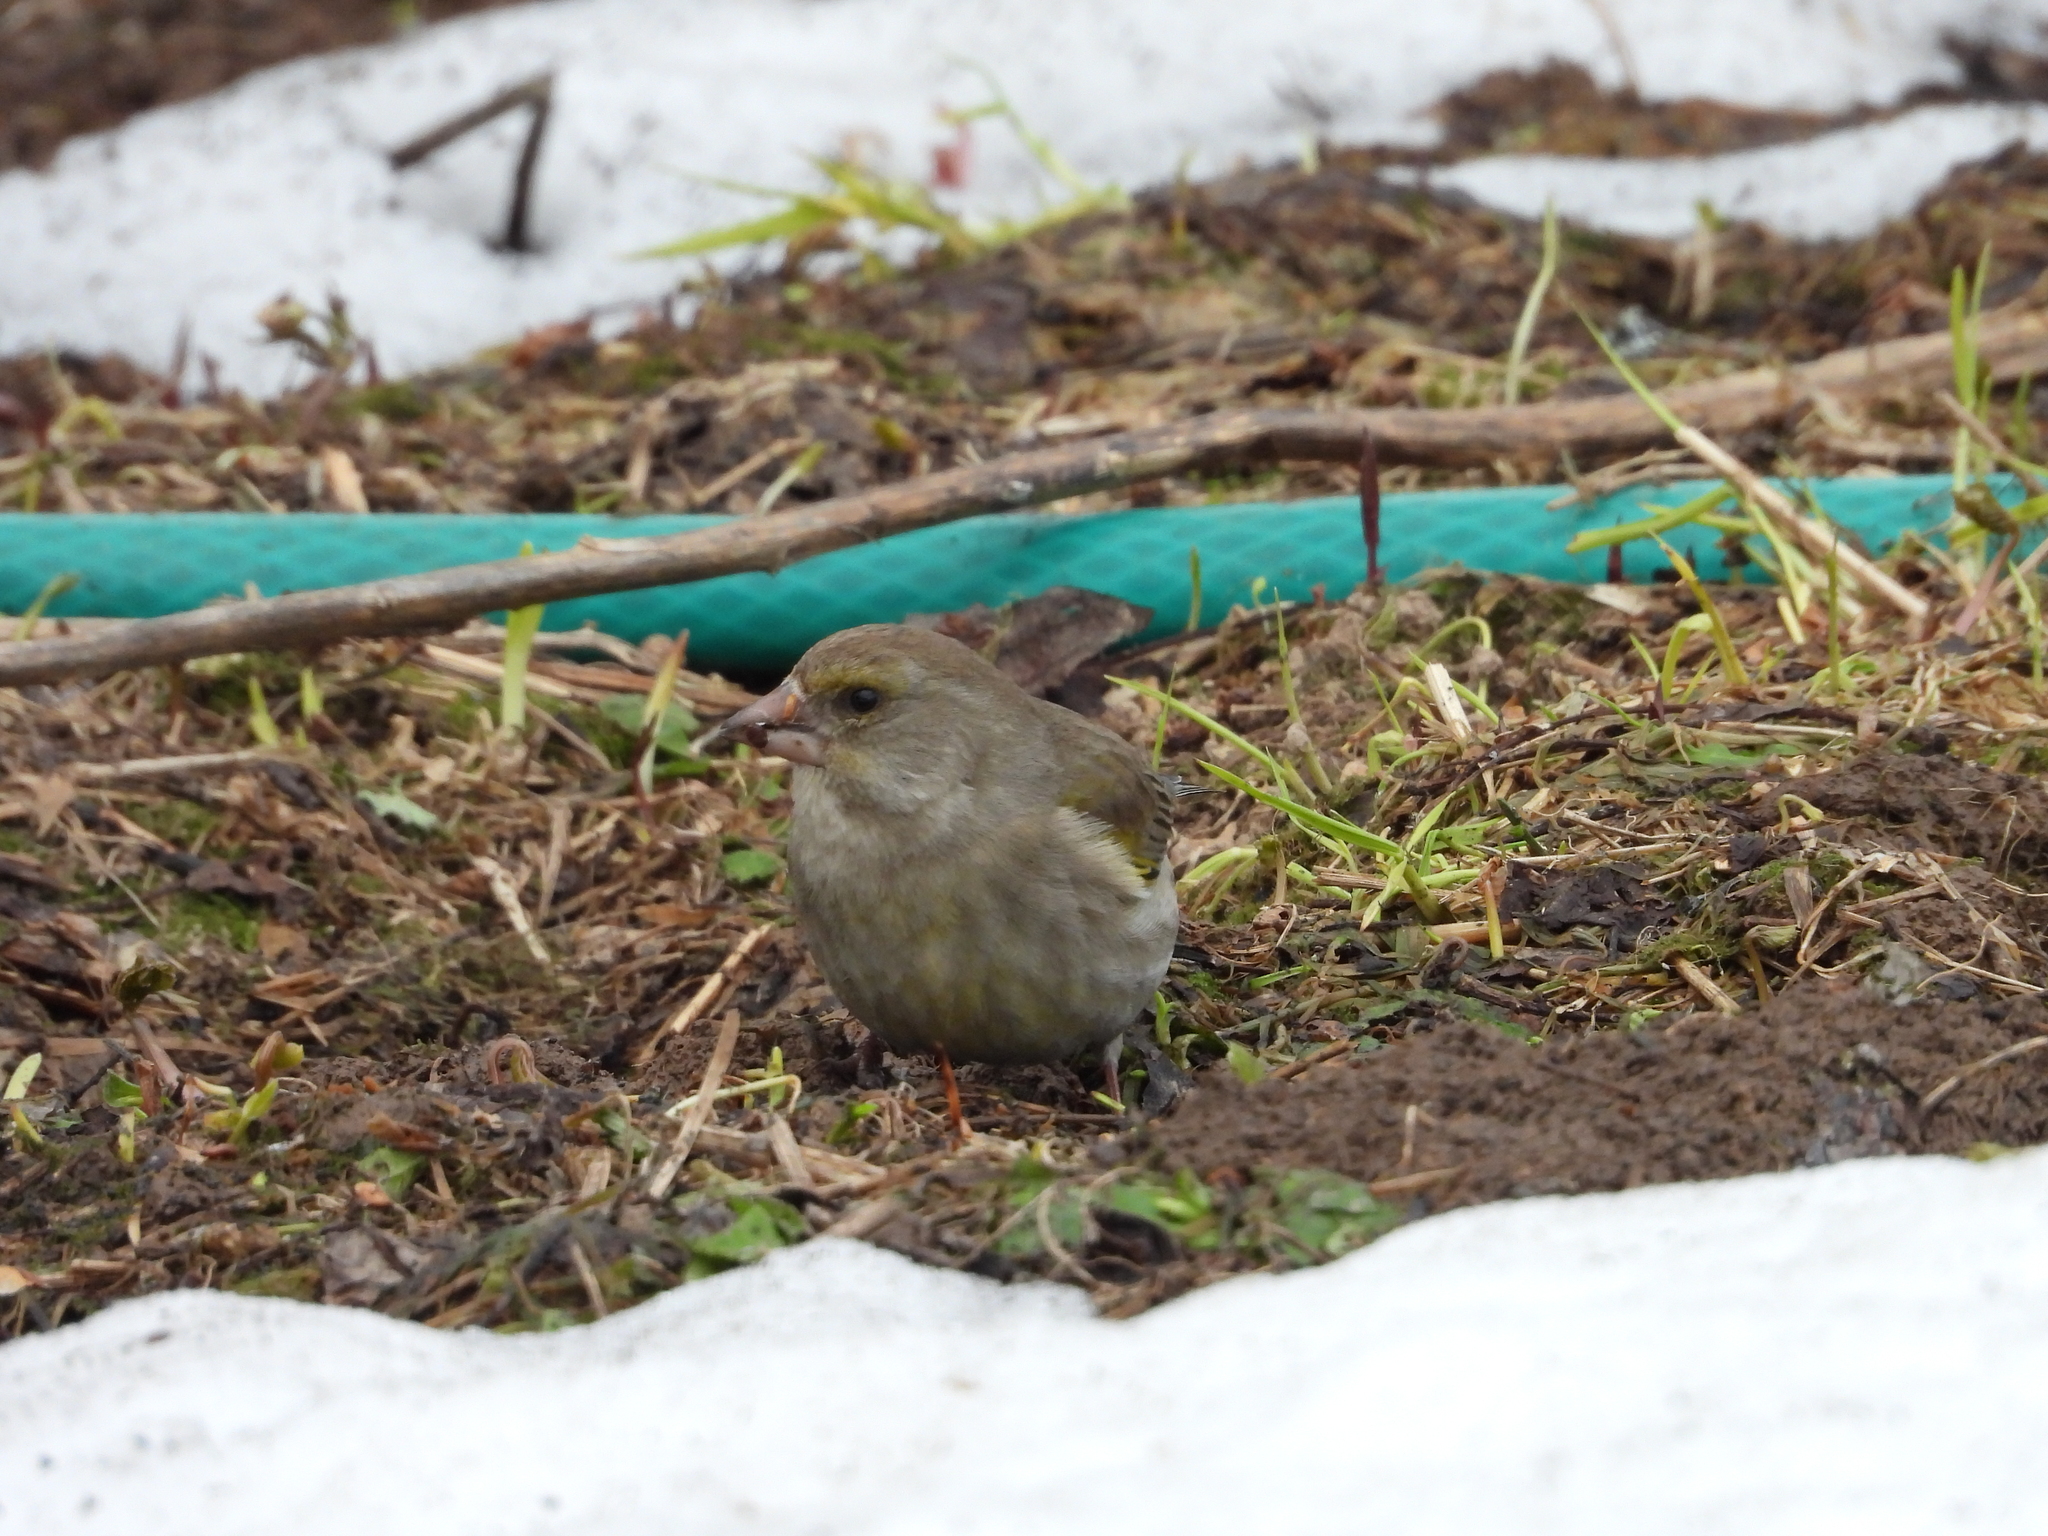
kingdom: Plantae
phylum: Tracheophyta
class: Liliopsida
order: Poales
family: Poaceae
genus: Chloris
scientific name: Chloris chloris
